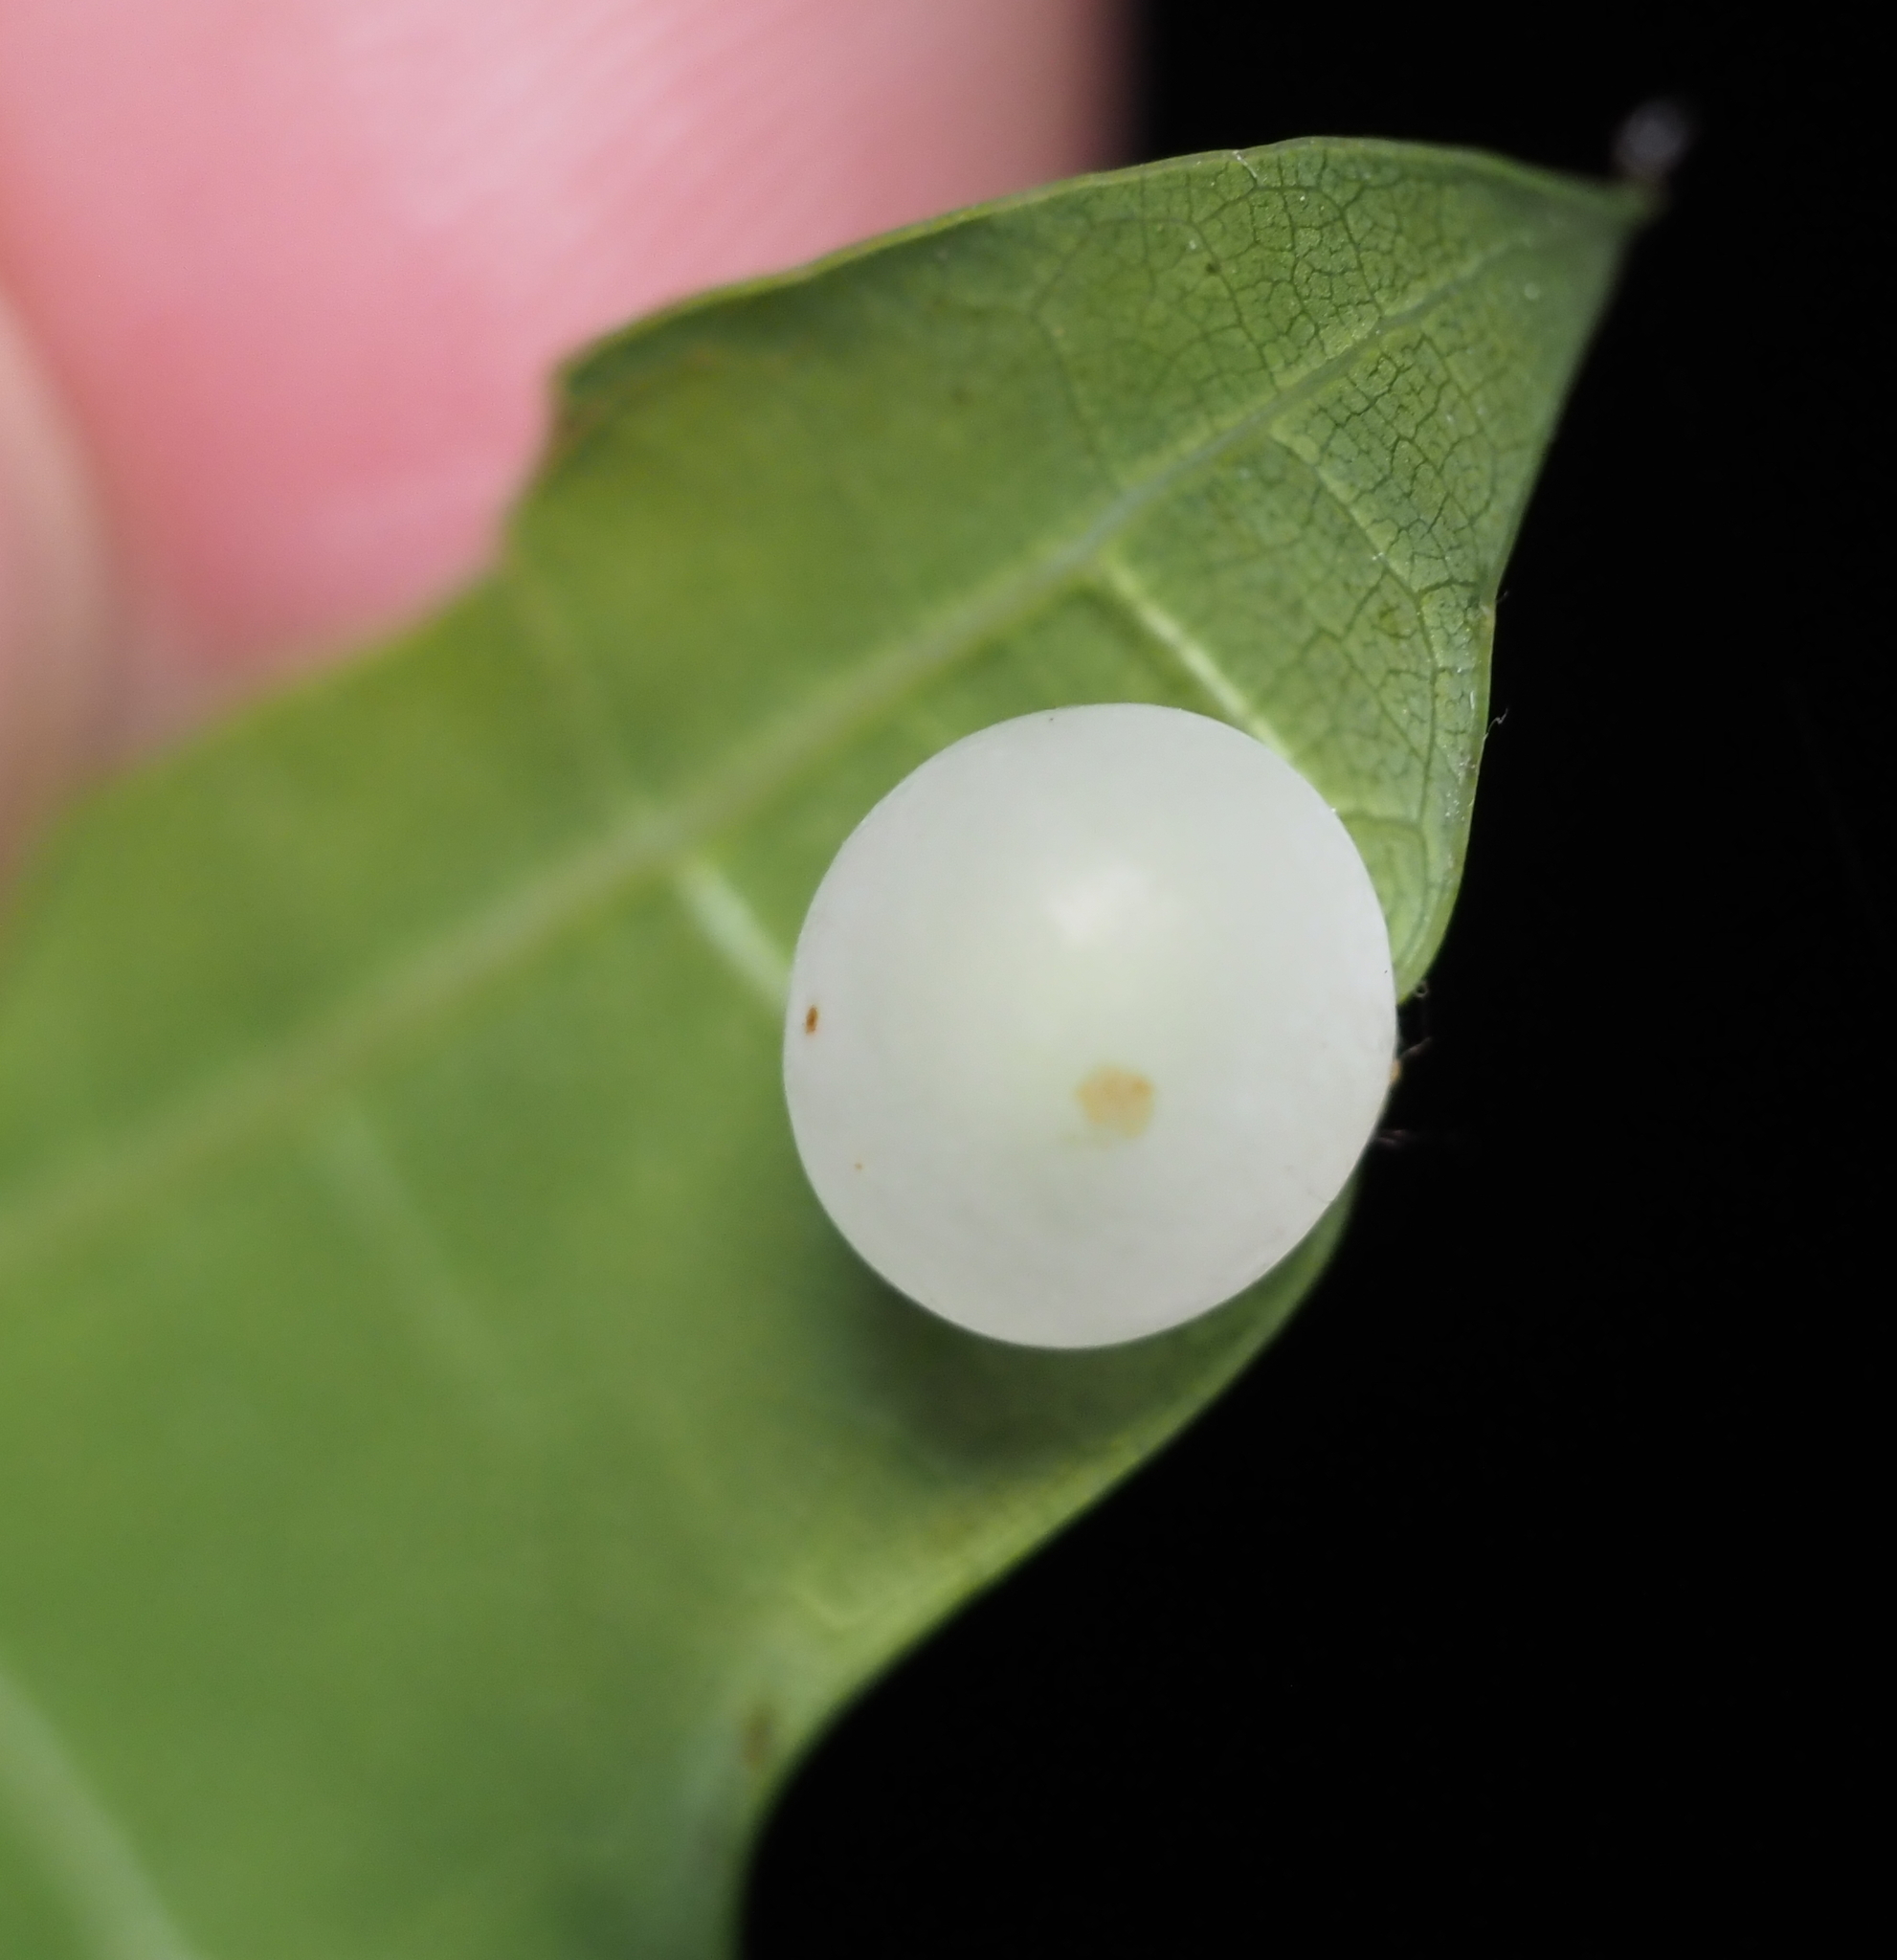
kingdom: Animalia
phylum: Arthropoda
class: Insecta
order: Hymenoptera
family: Cynipidae
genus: Amphibolips
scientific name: Amphibolips
